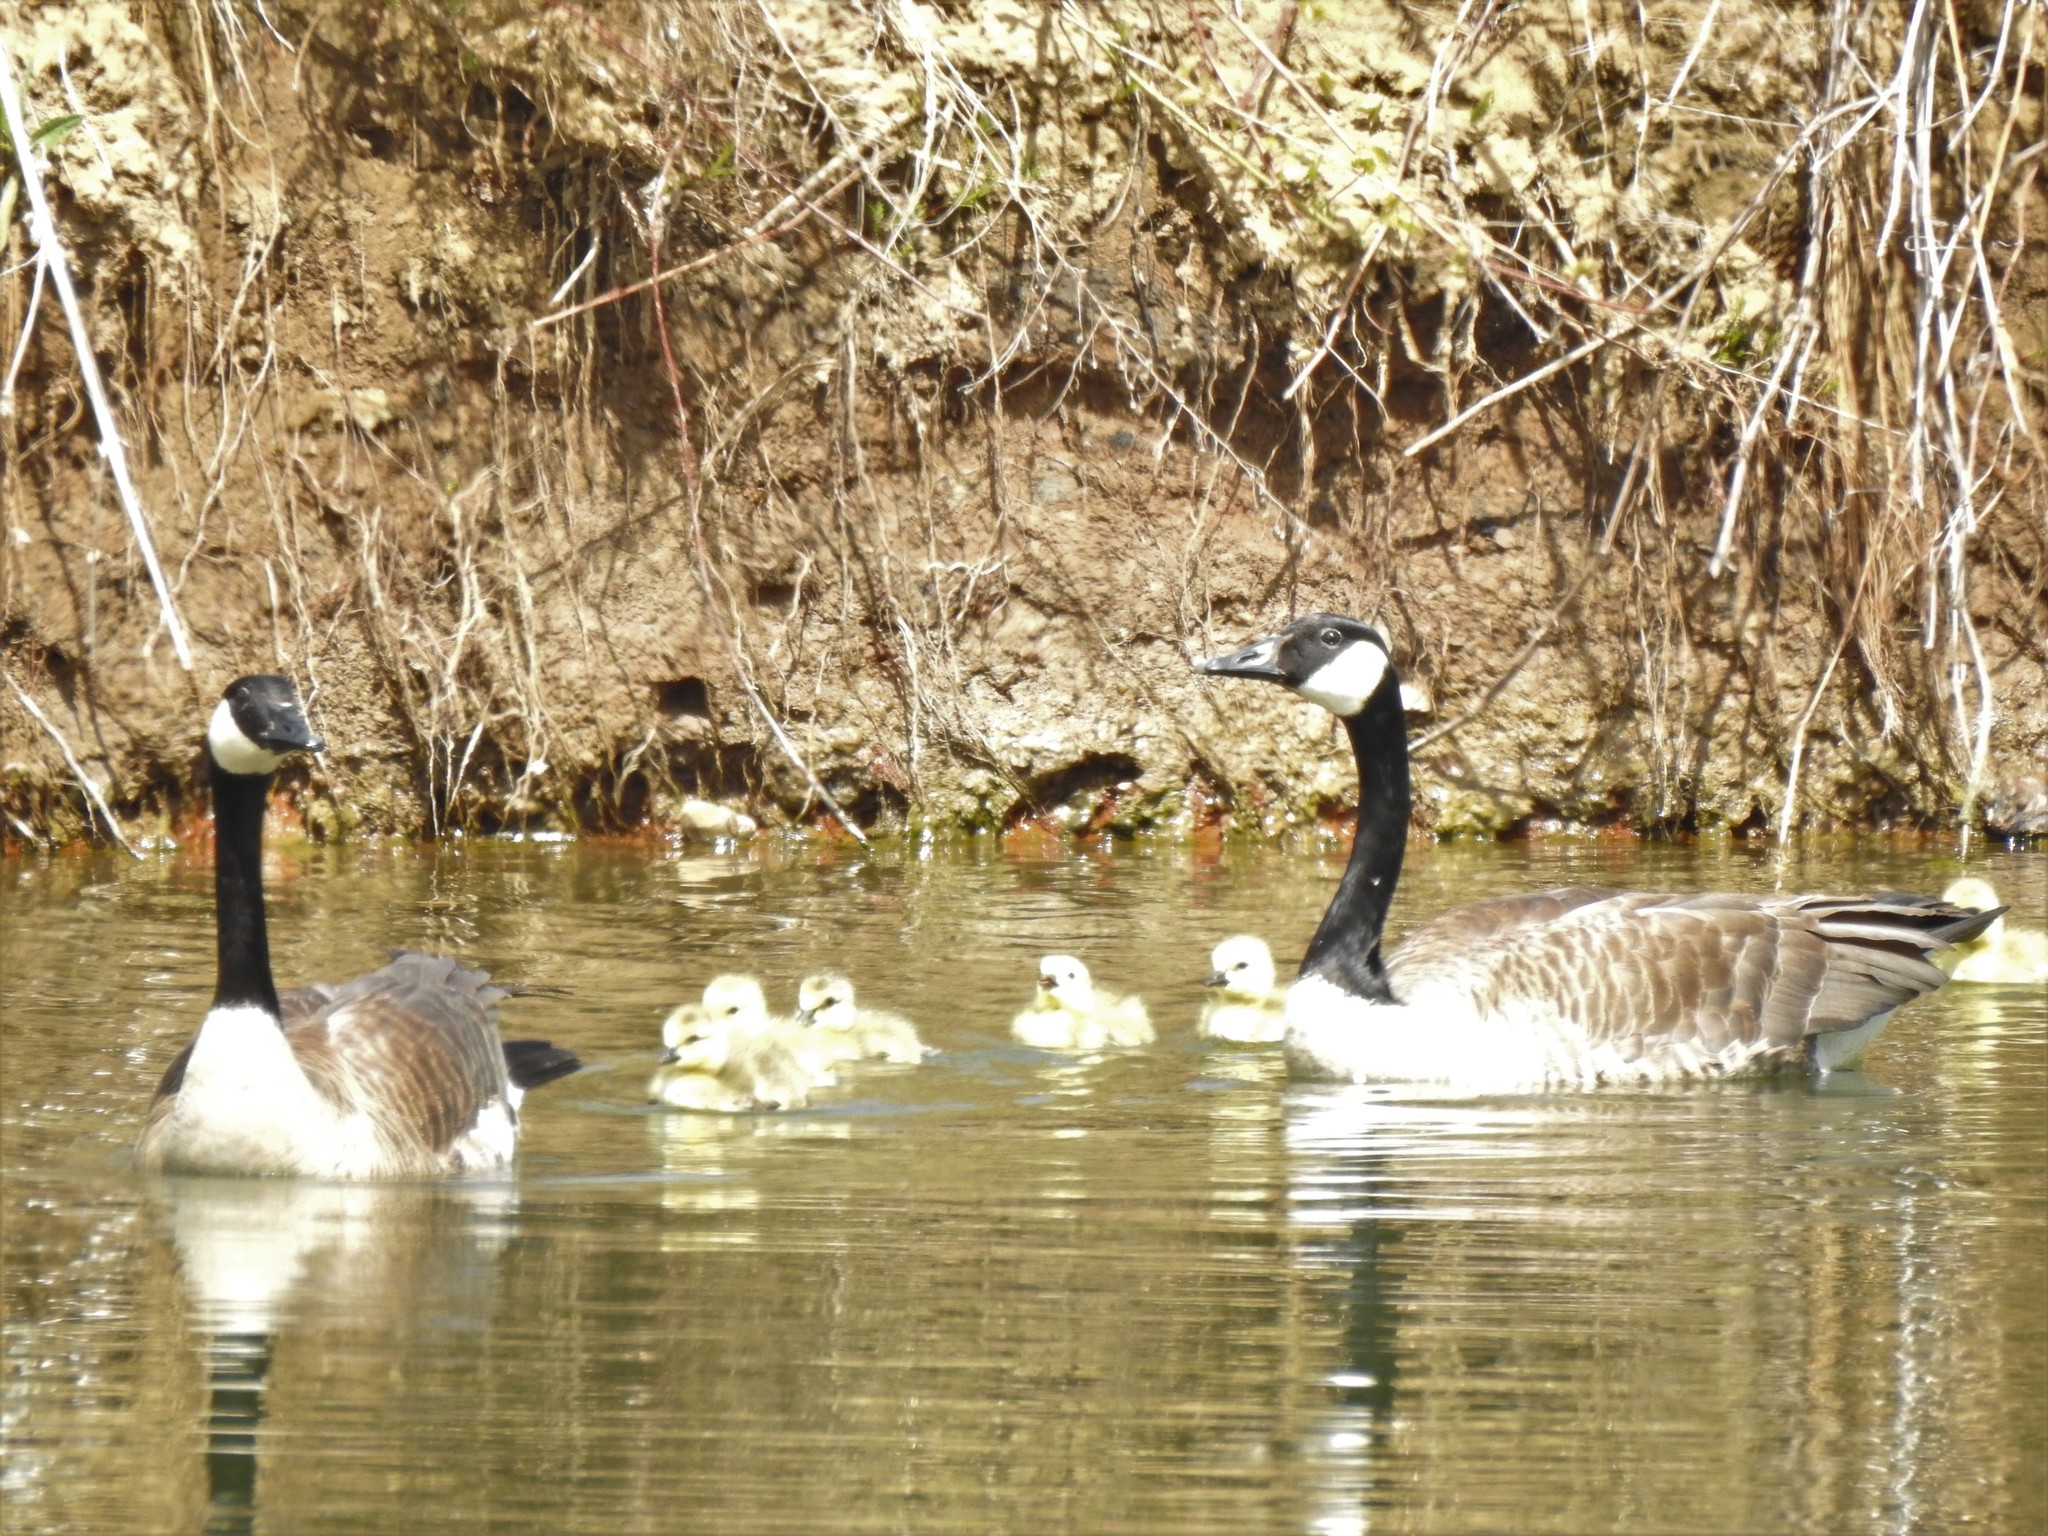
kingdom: Animalia
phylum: Chordata
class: Aves
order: Anseriformes
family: Anatidae
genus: Branta
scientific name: Branta canadensis
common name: Canada goose
